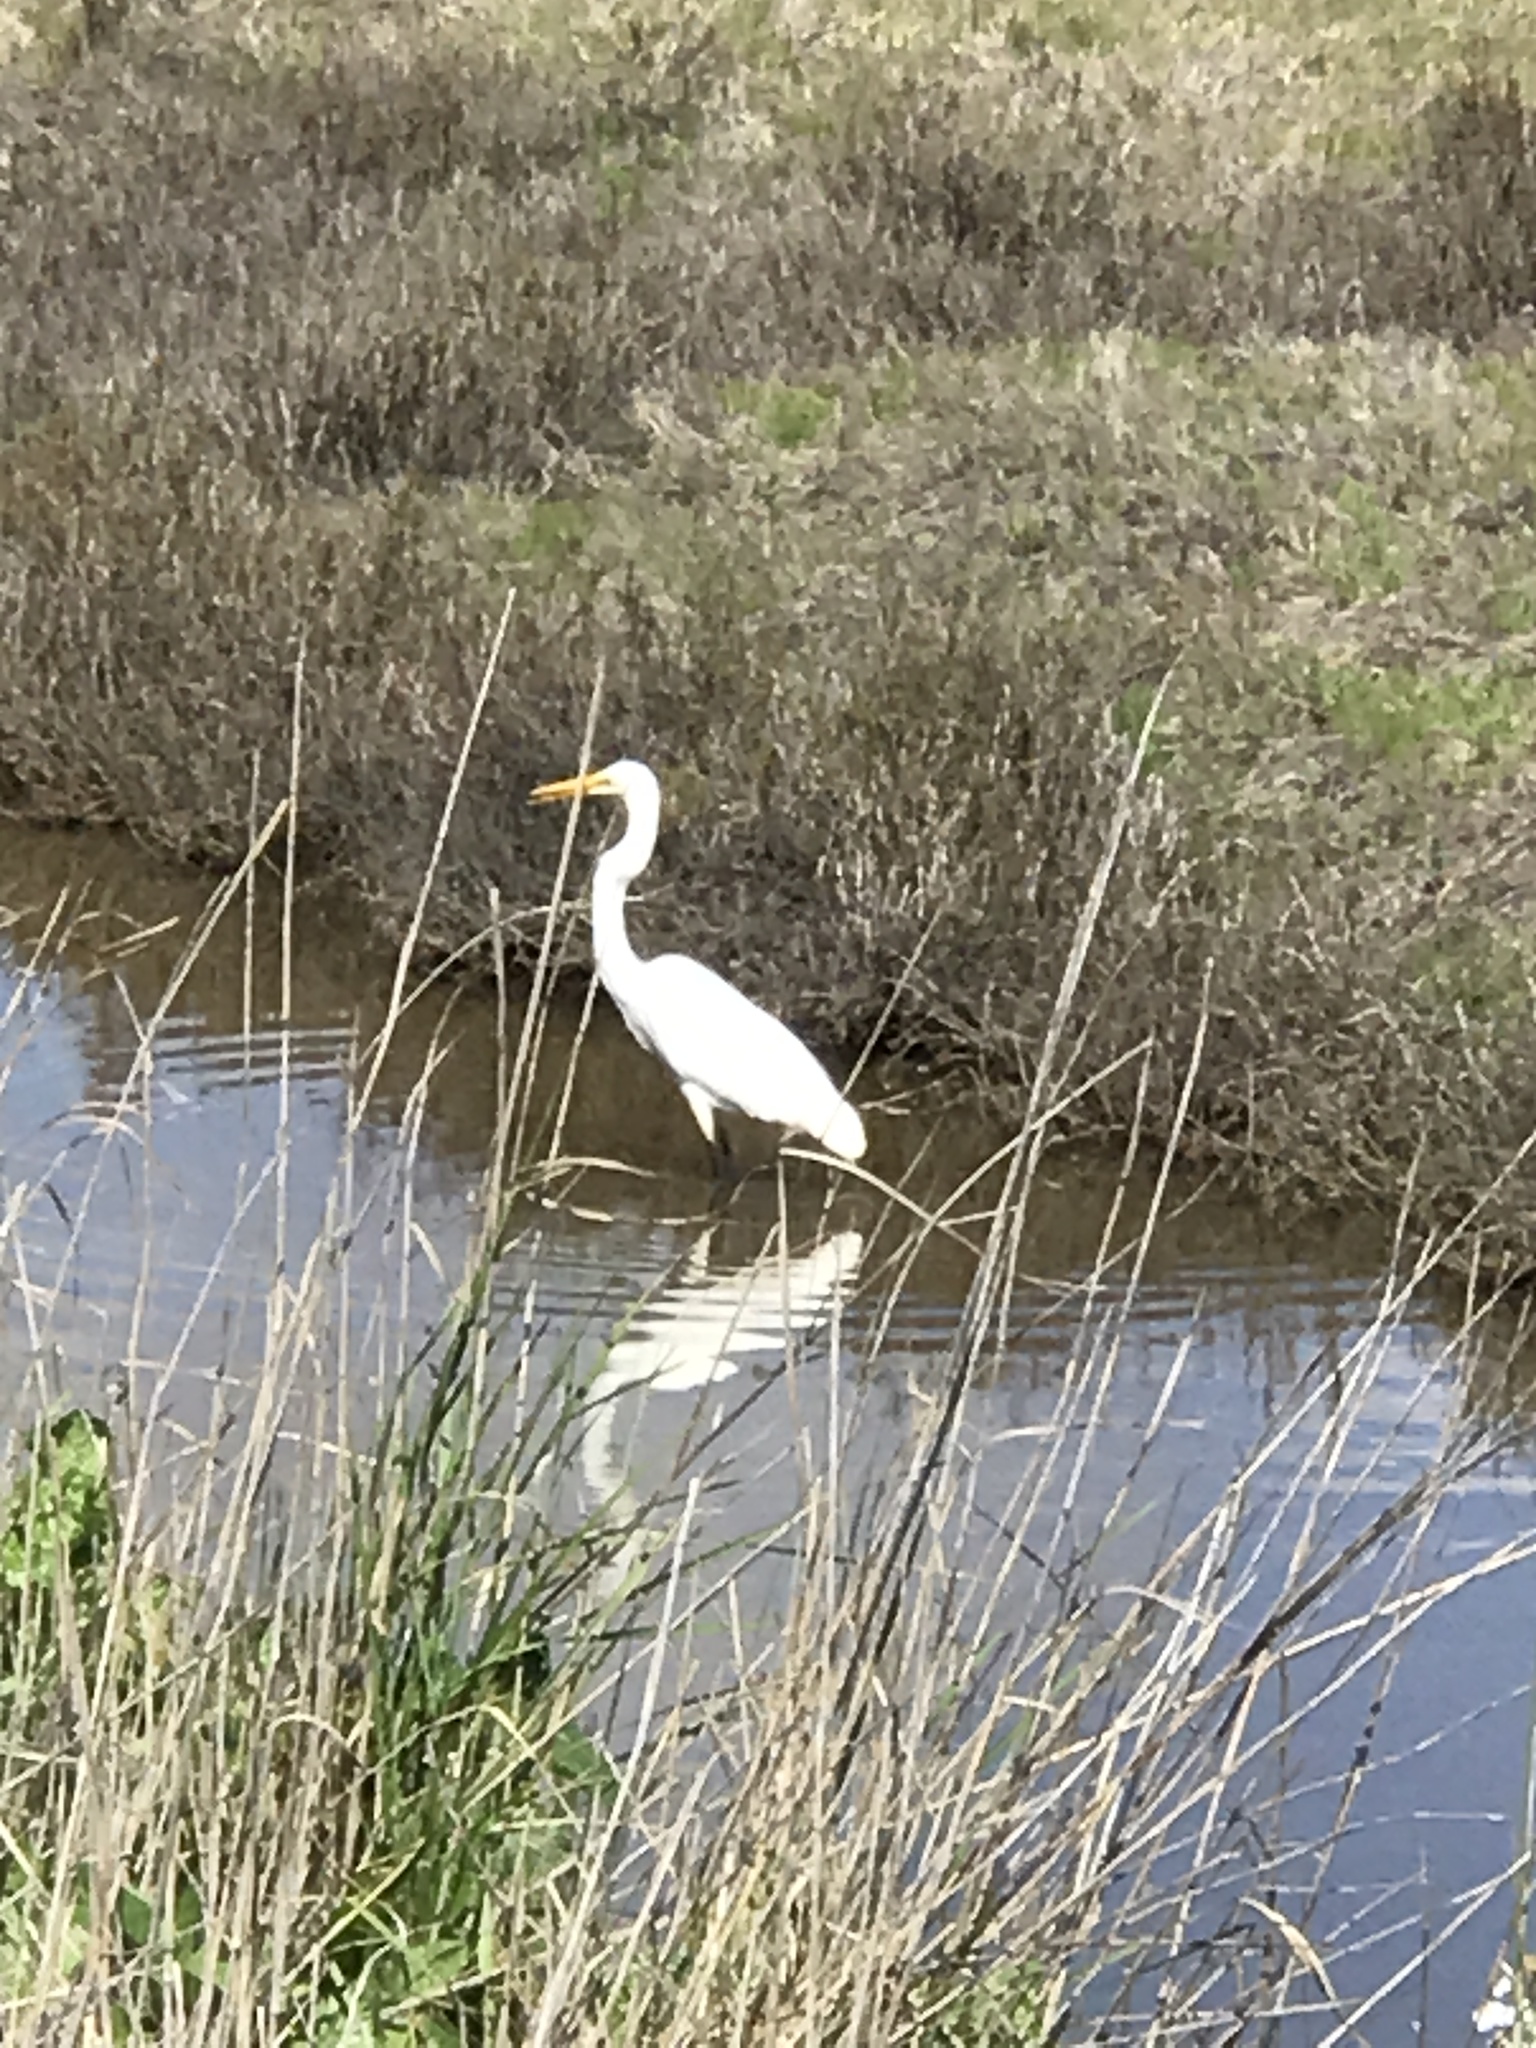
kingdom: Animalia
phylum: Chordata
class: Aves
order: Pelecaniformes
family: Ardeidae
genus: Ardea
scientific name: Ardea alba
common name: Great egret
